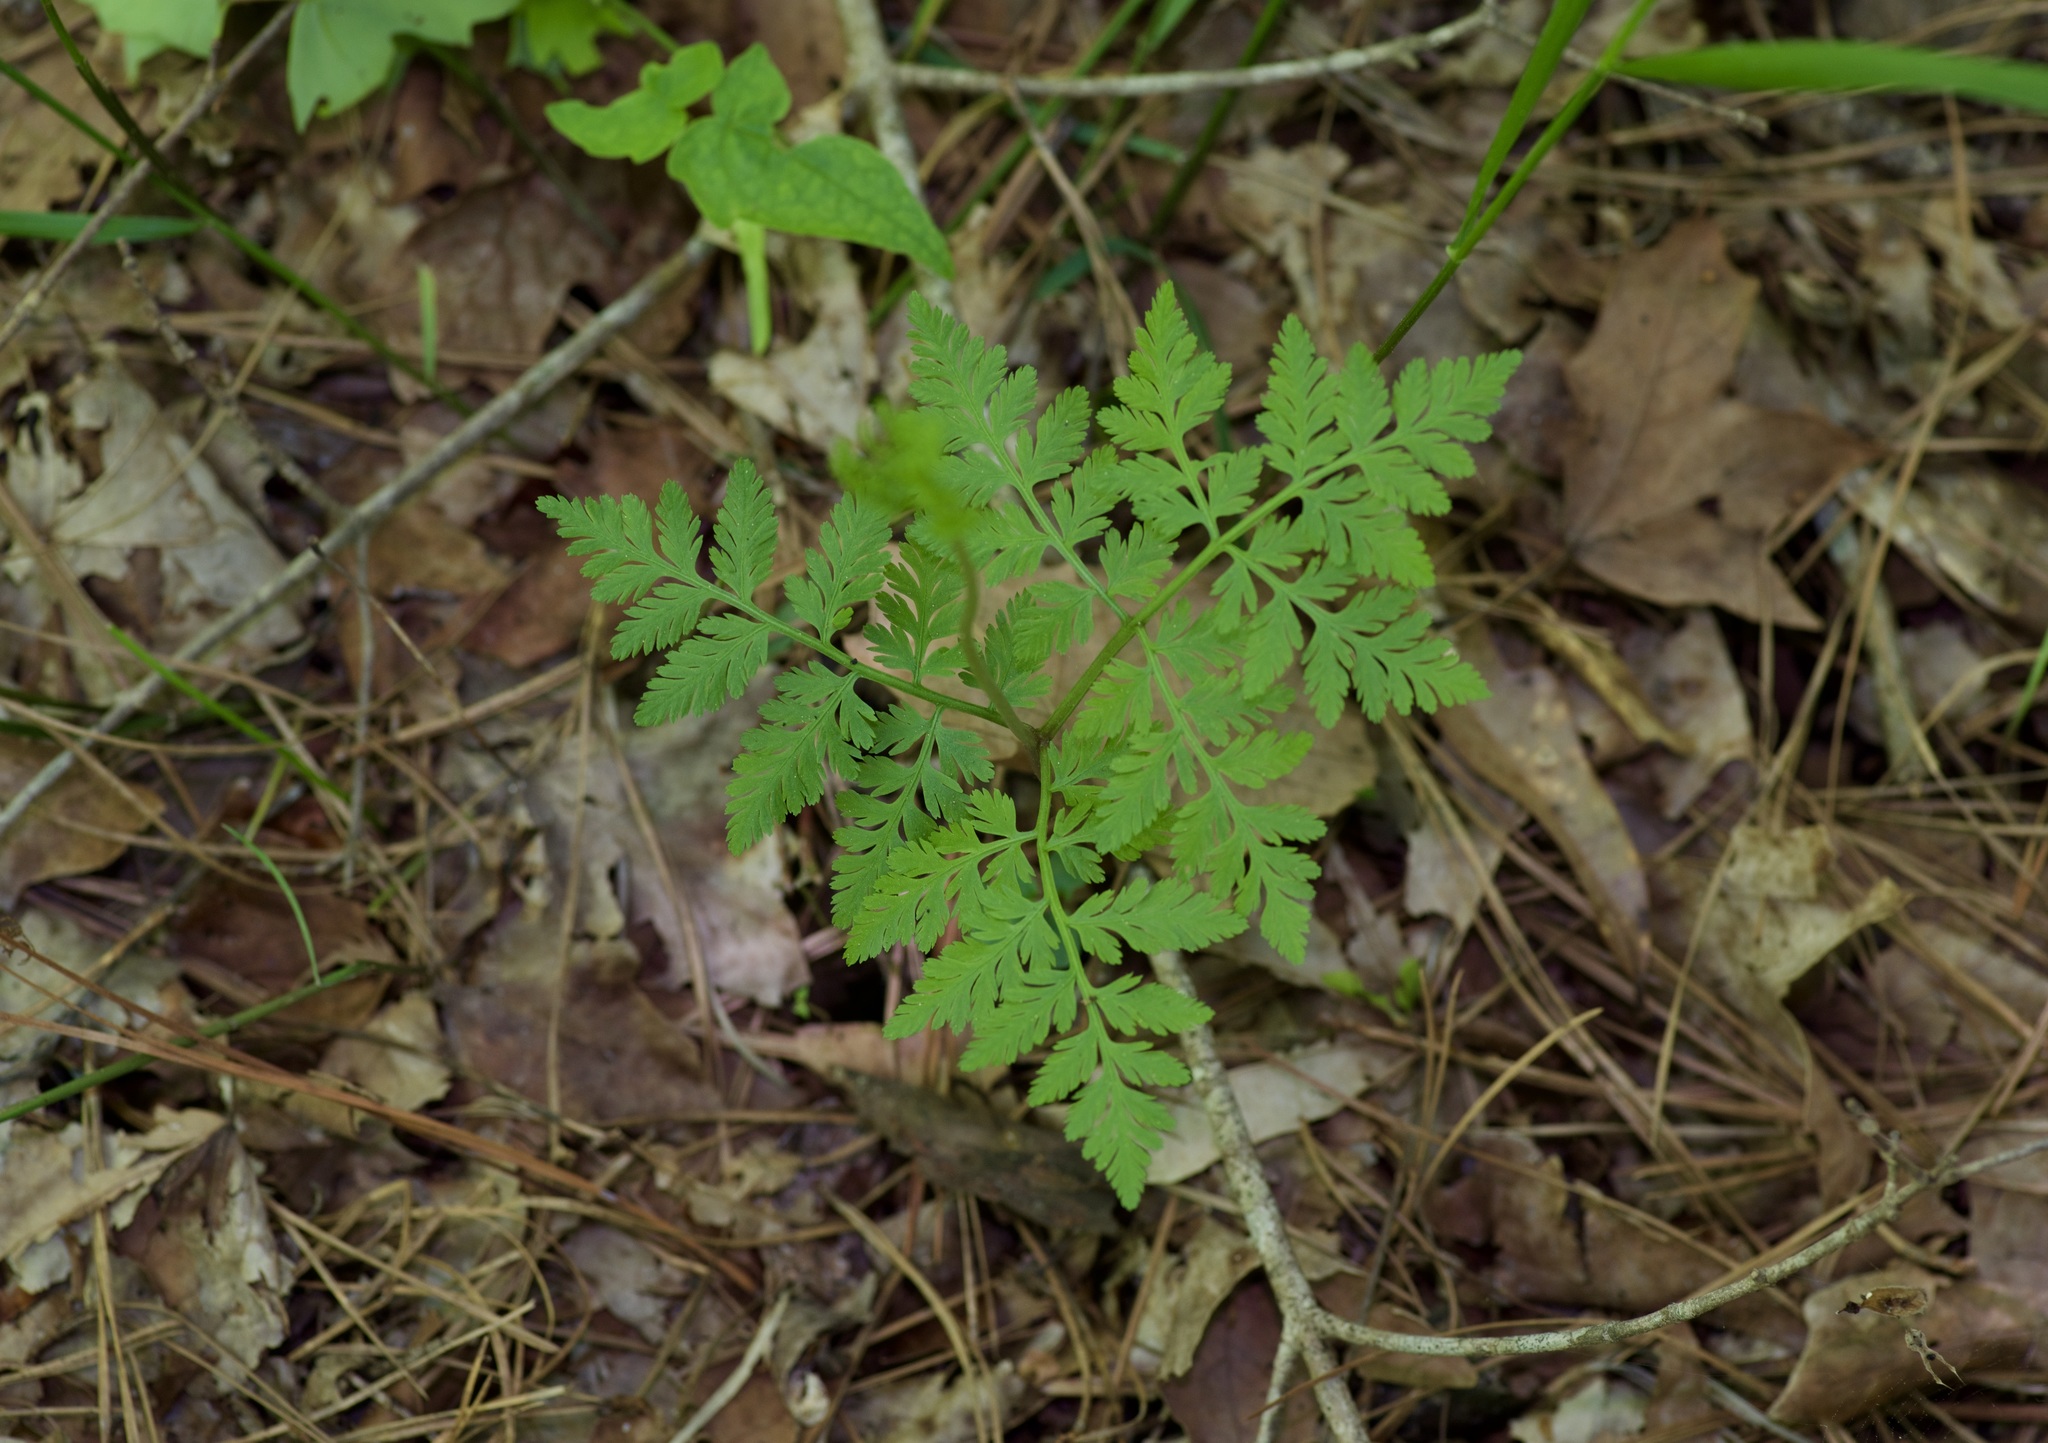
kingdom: Plantae
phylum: Tracheophyta
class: Polypodiopsida
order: Ophioglossales
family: Ophioglossaceae
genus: Botrypus
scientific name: Botrypus virginianus
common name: Common grapefern
